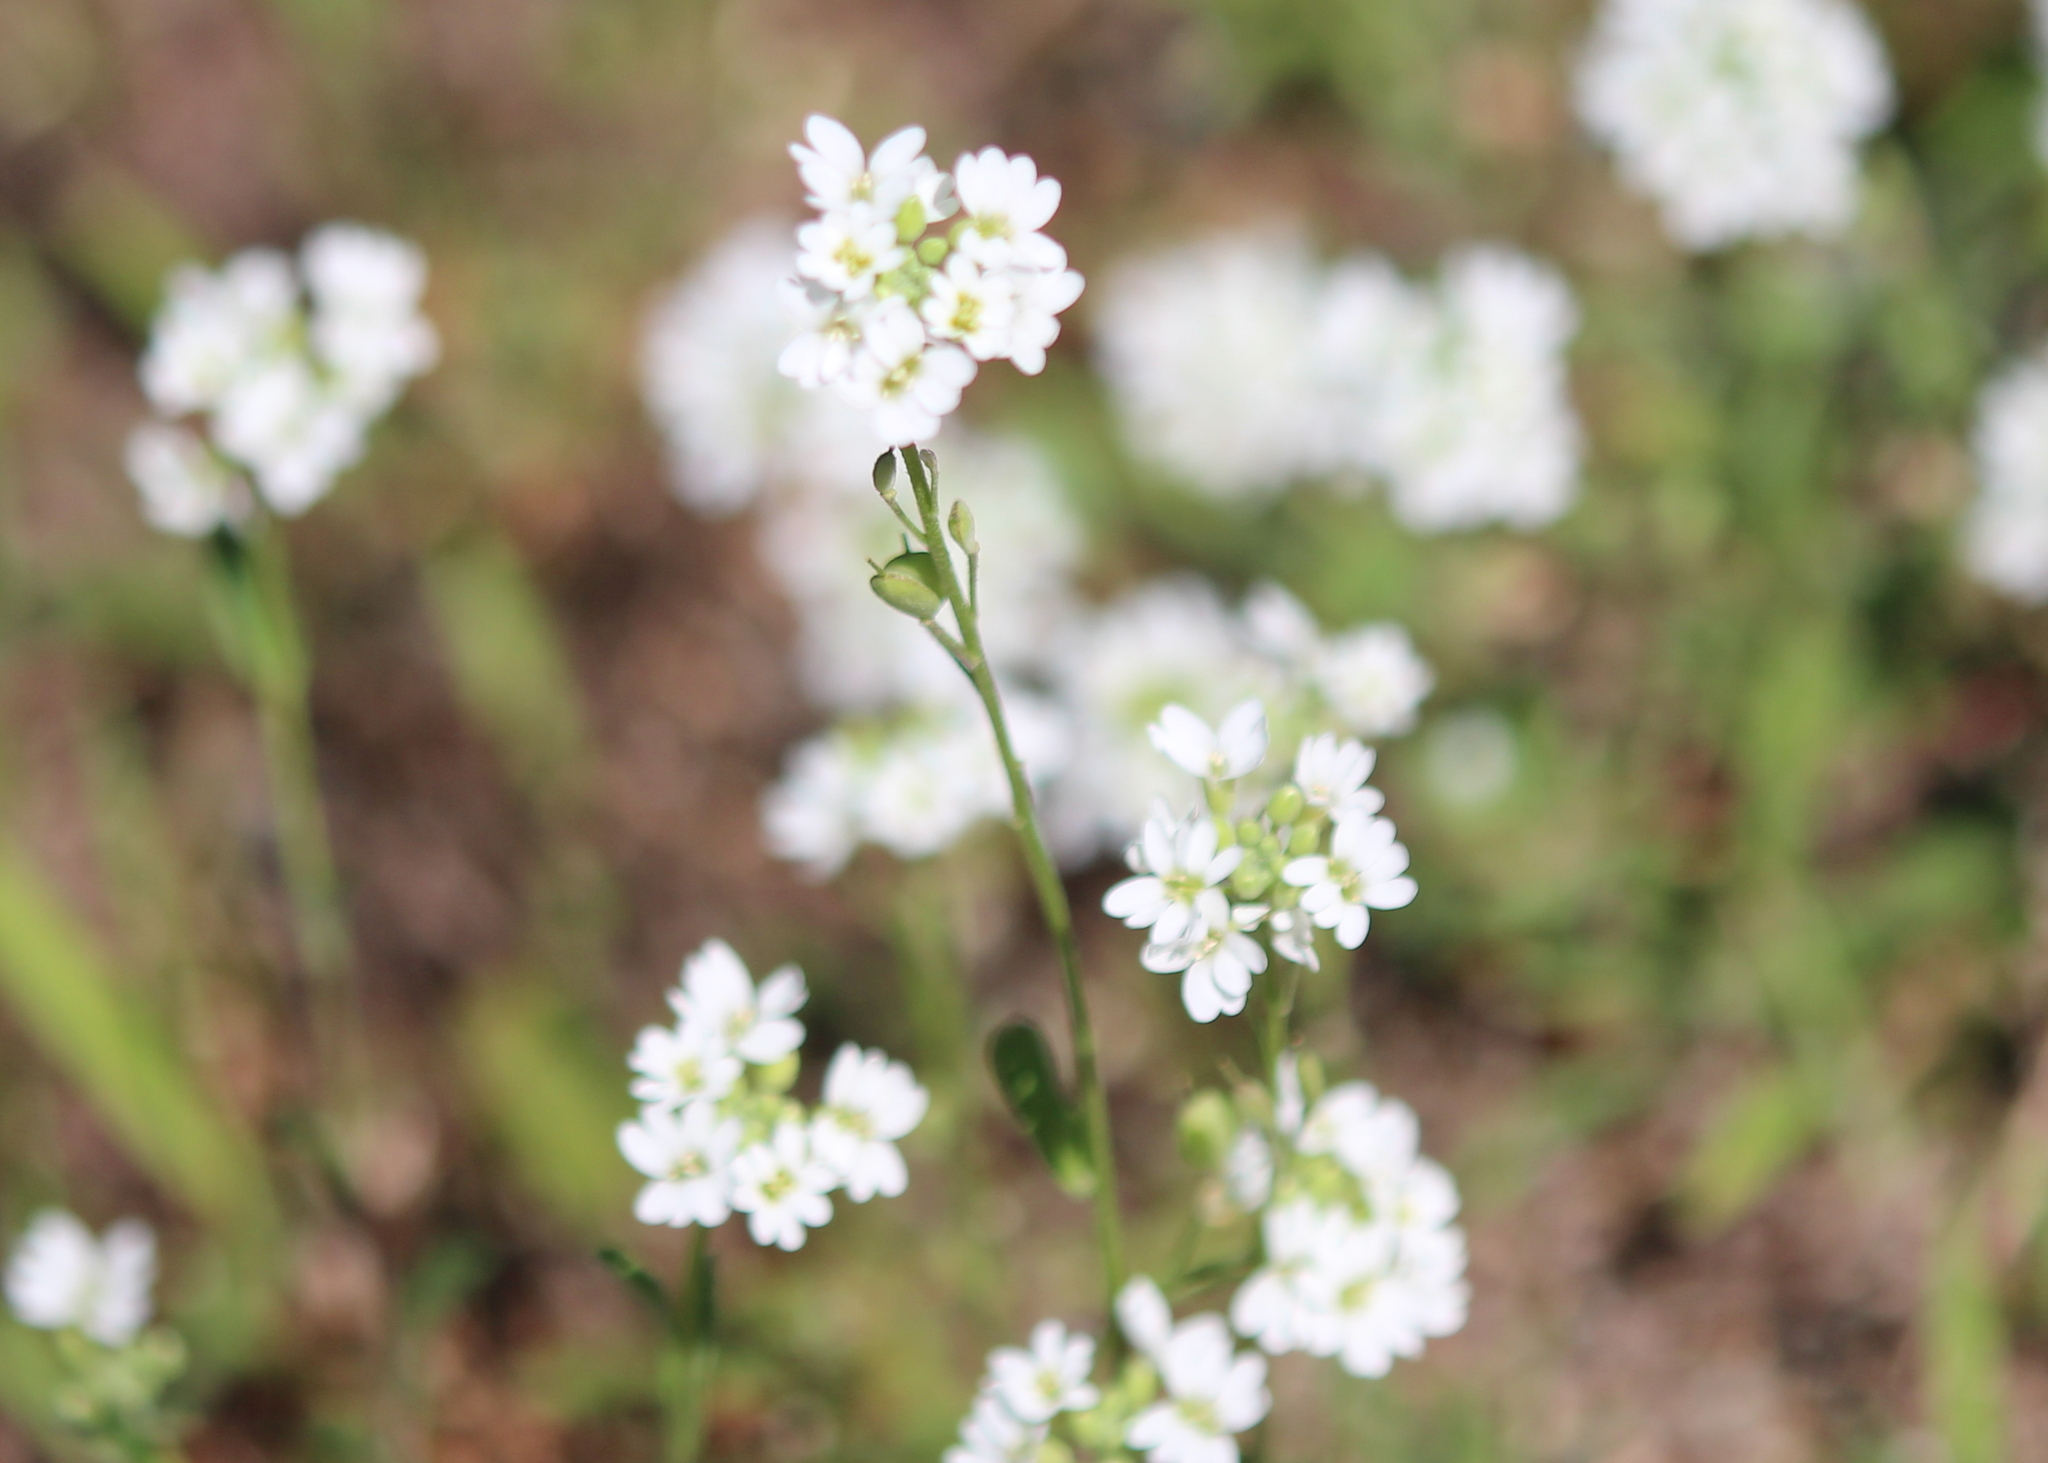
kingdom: Plantae
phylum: Tracheophyta
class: Magnoliopsida
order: Brassicales
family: Brassicaceae
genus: Berteroa
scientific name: Berteroa incana
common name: Hoary alison
